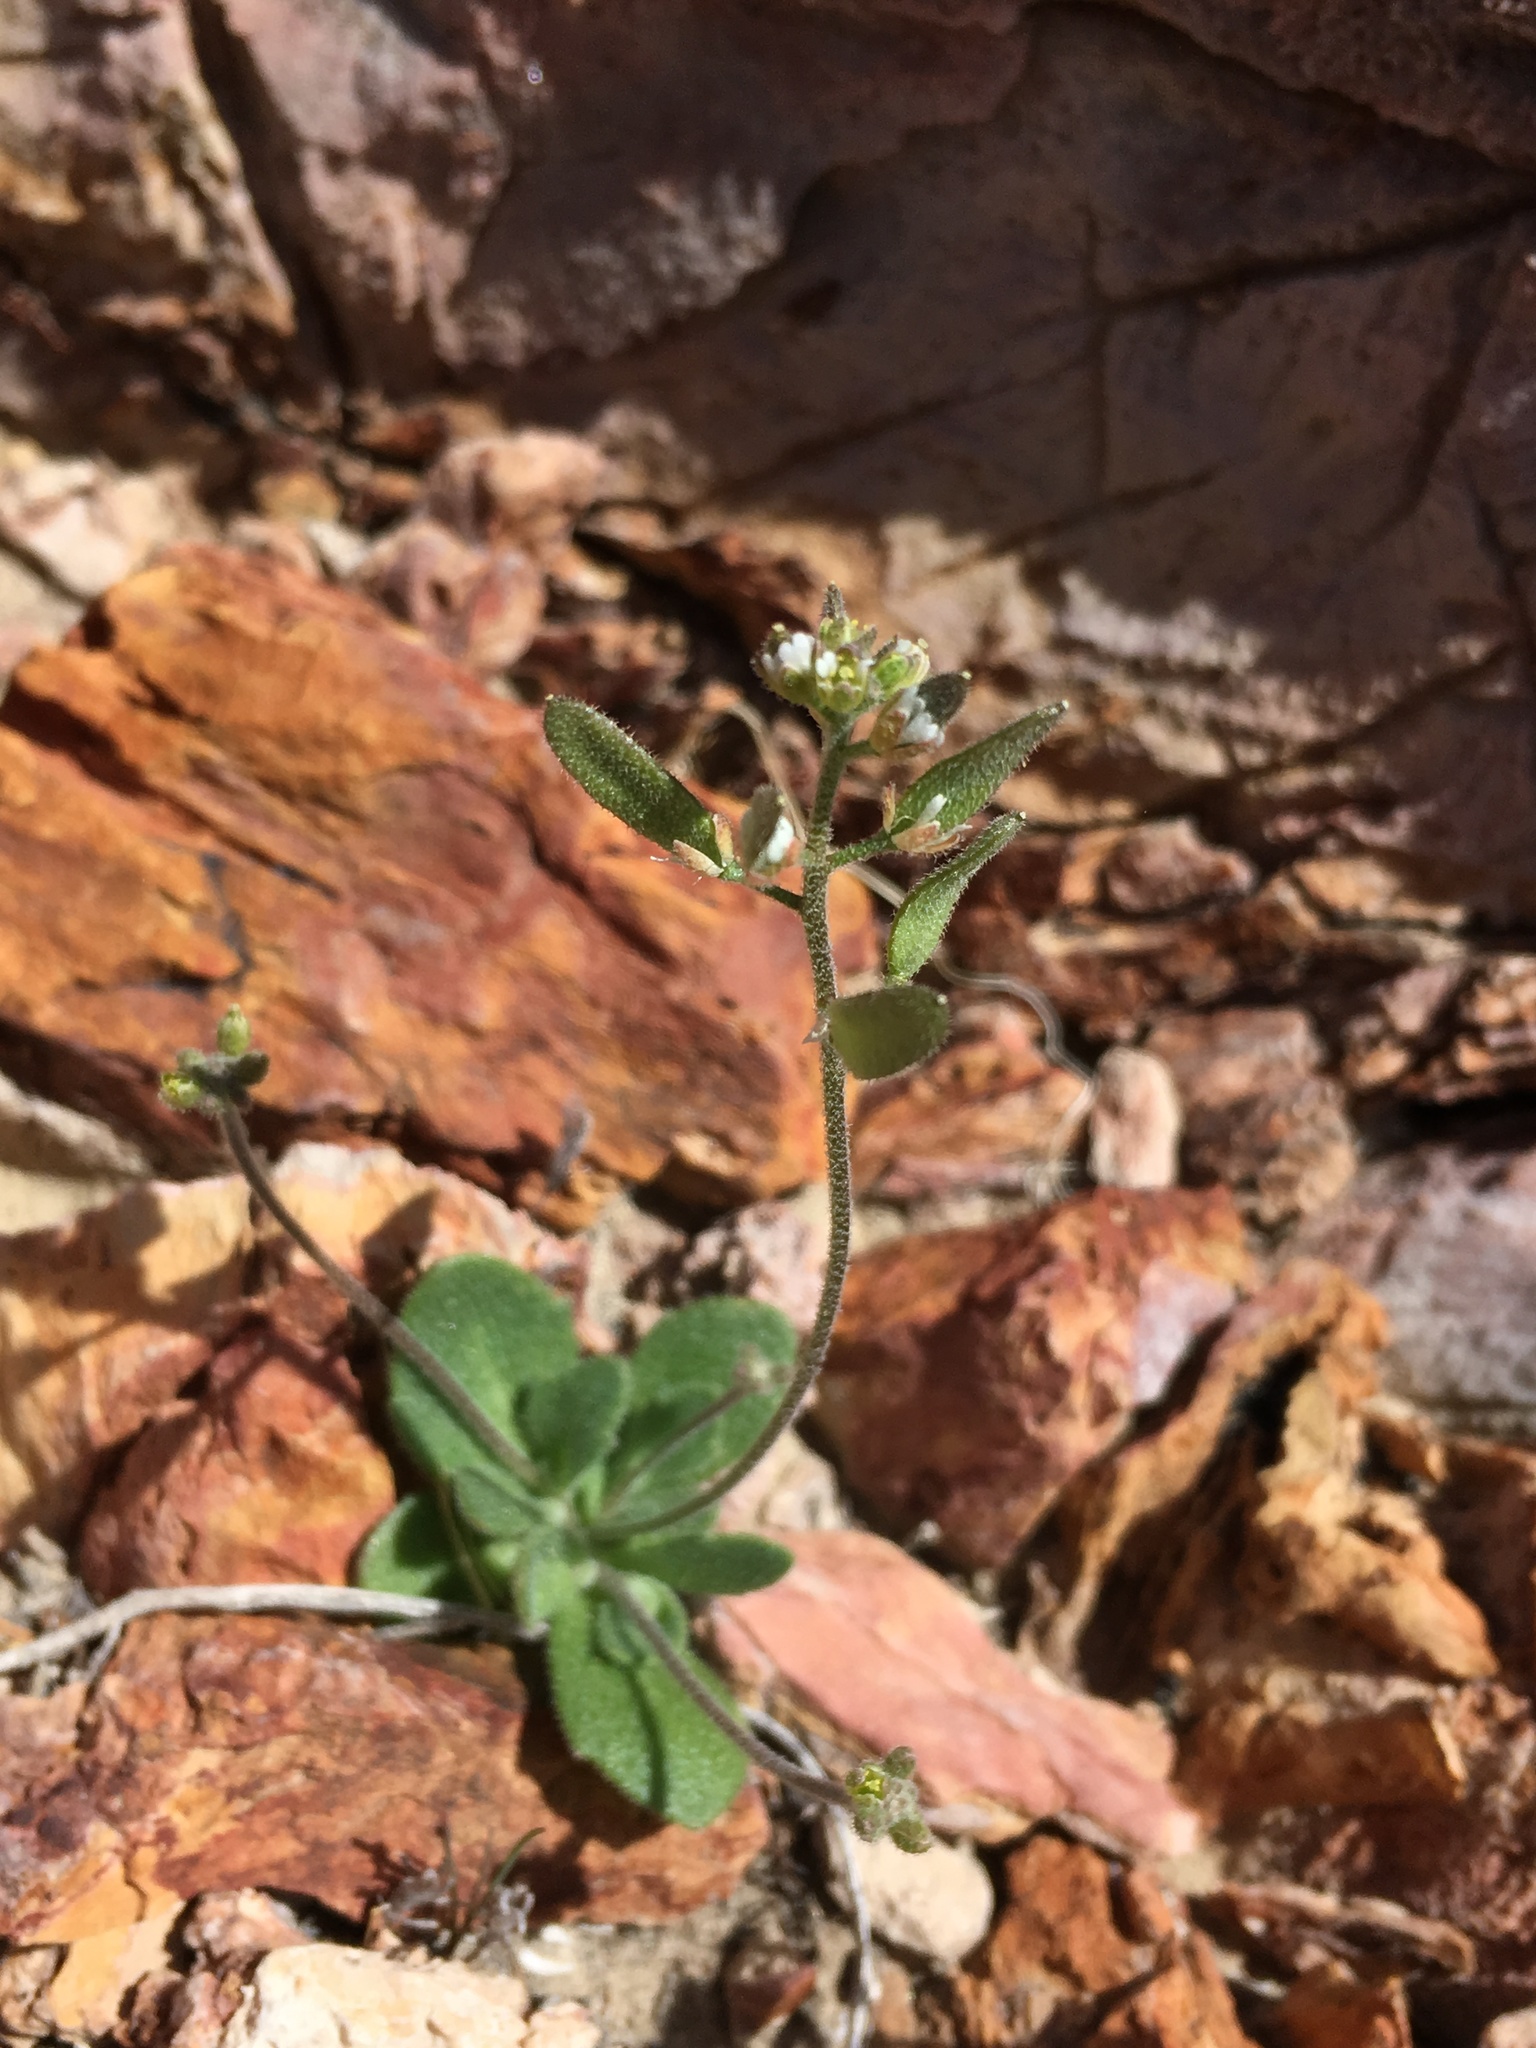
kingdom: Plantae
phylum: Tracheophyta
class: Magnoliopsida
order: Brassicales
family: Brassicaceae
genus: Tomostima
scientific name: Tomostima cuneifolia
